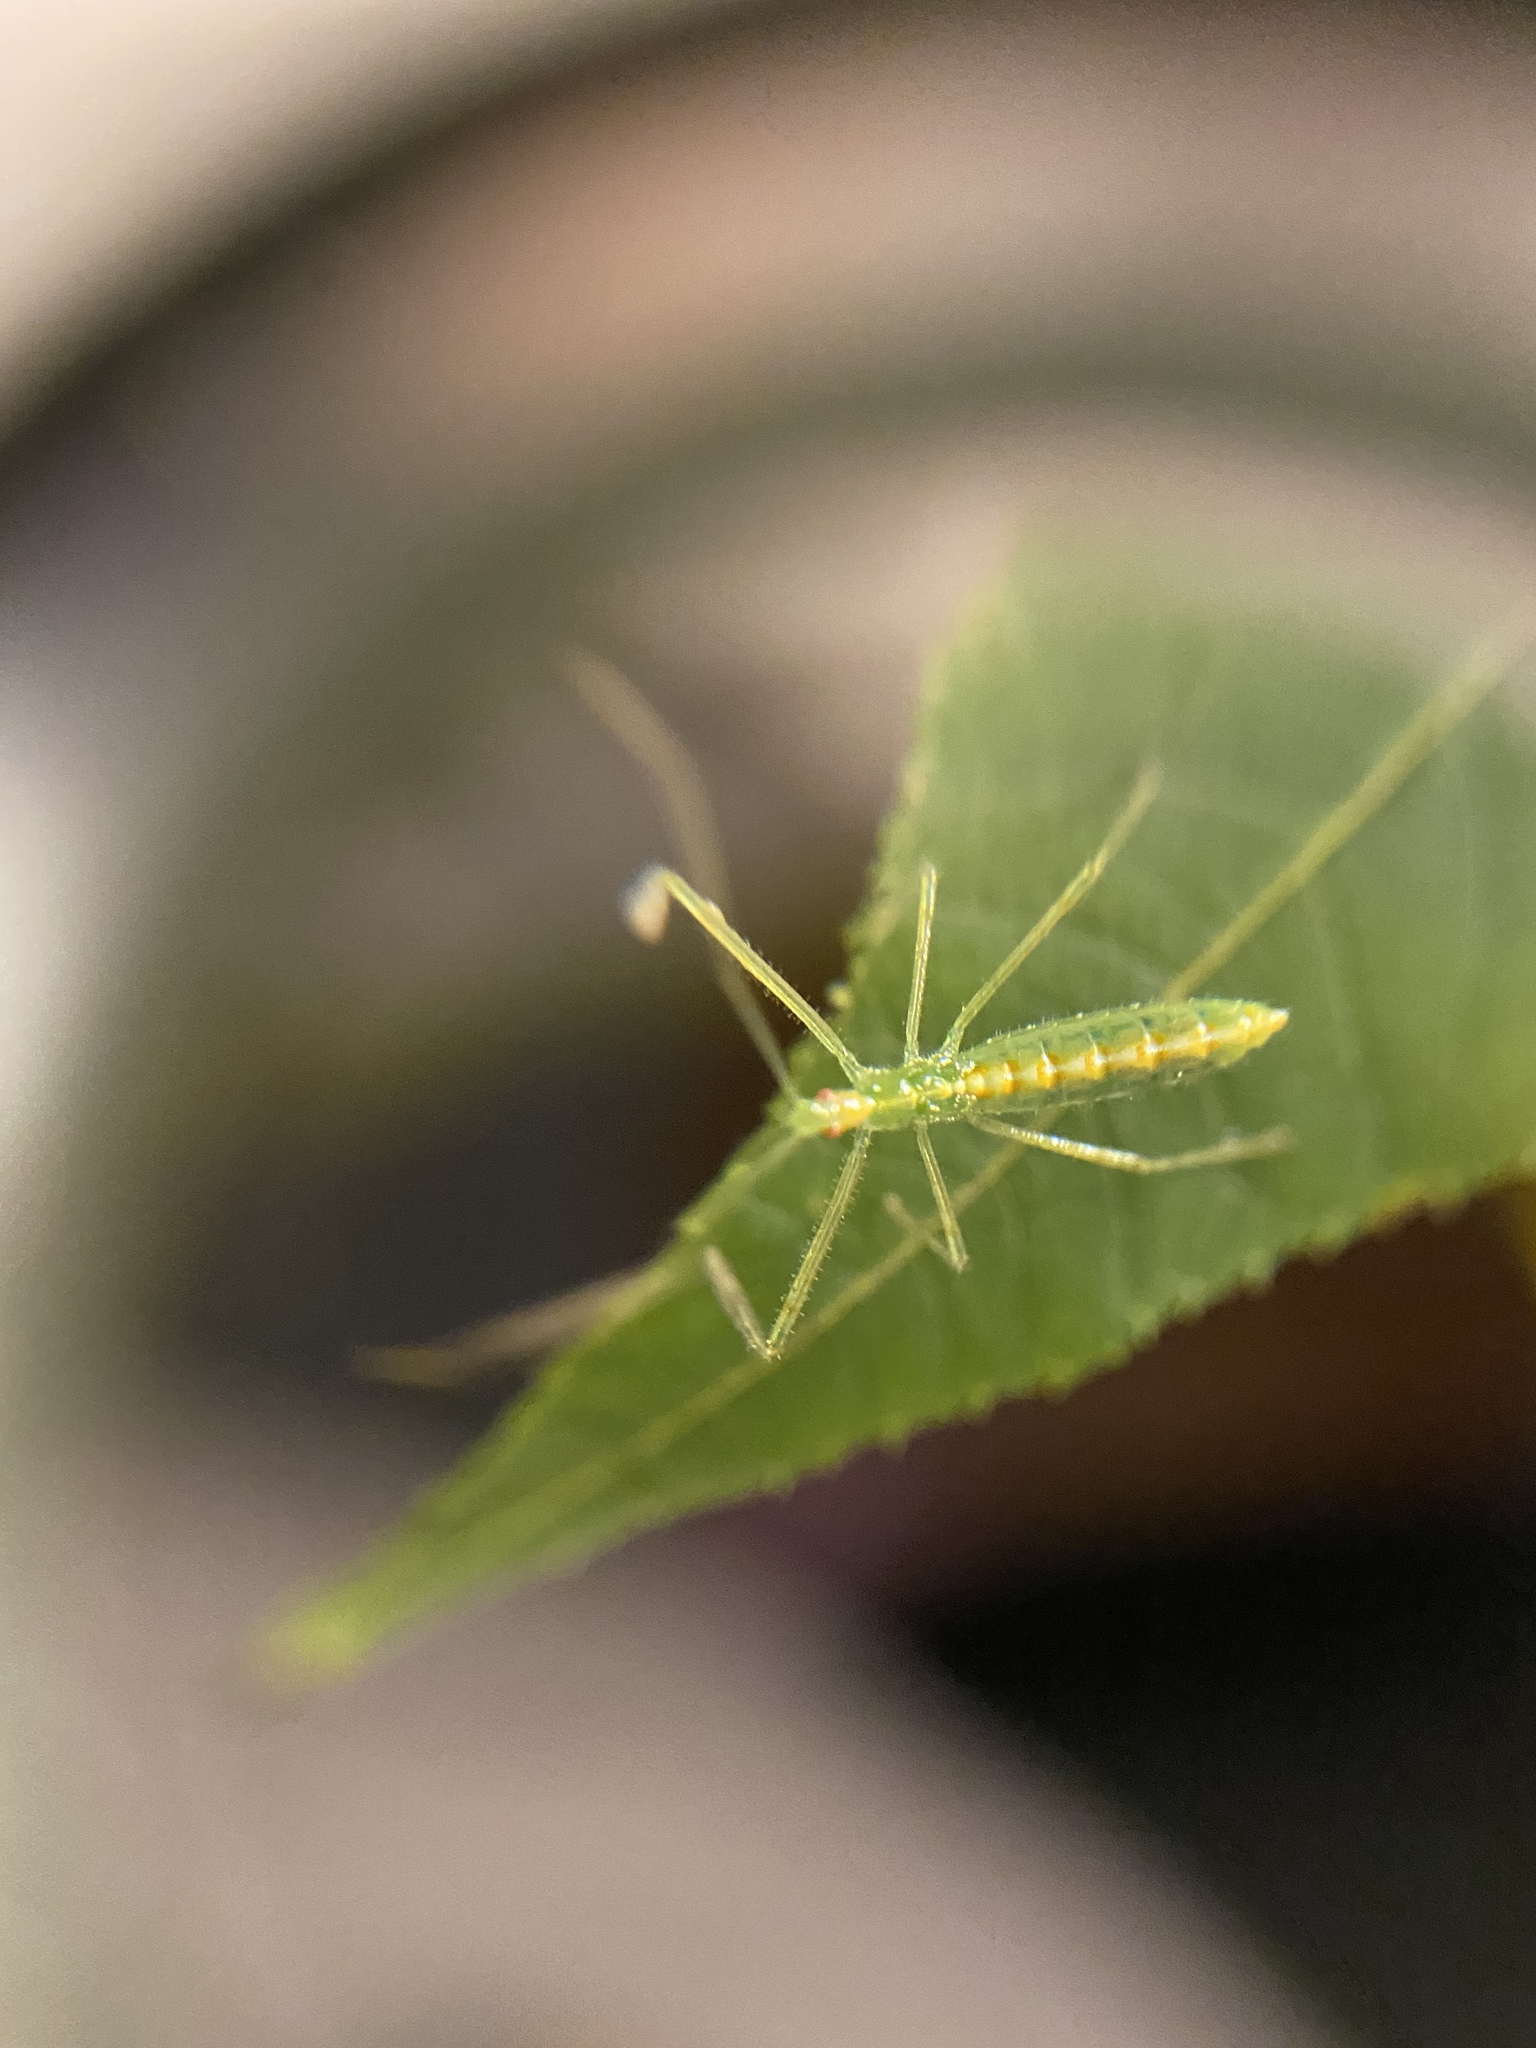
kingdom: Animalia
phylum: Arthropoda
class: Insecta
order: Hemiptera
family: Reduviidae
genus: Zelus
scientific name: Zelus luridus
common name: Pale green assassin bug
